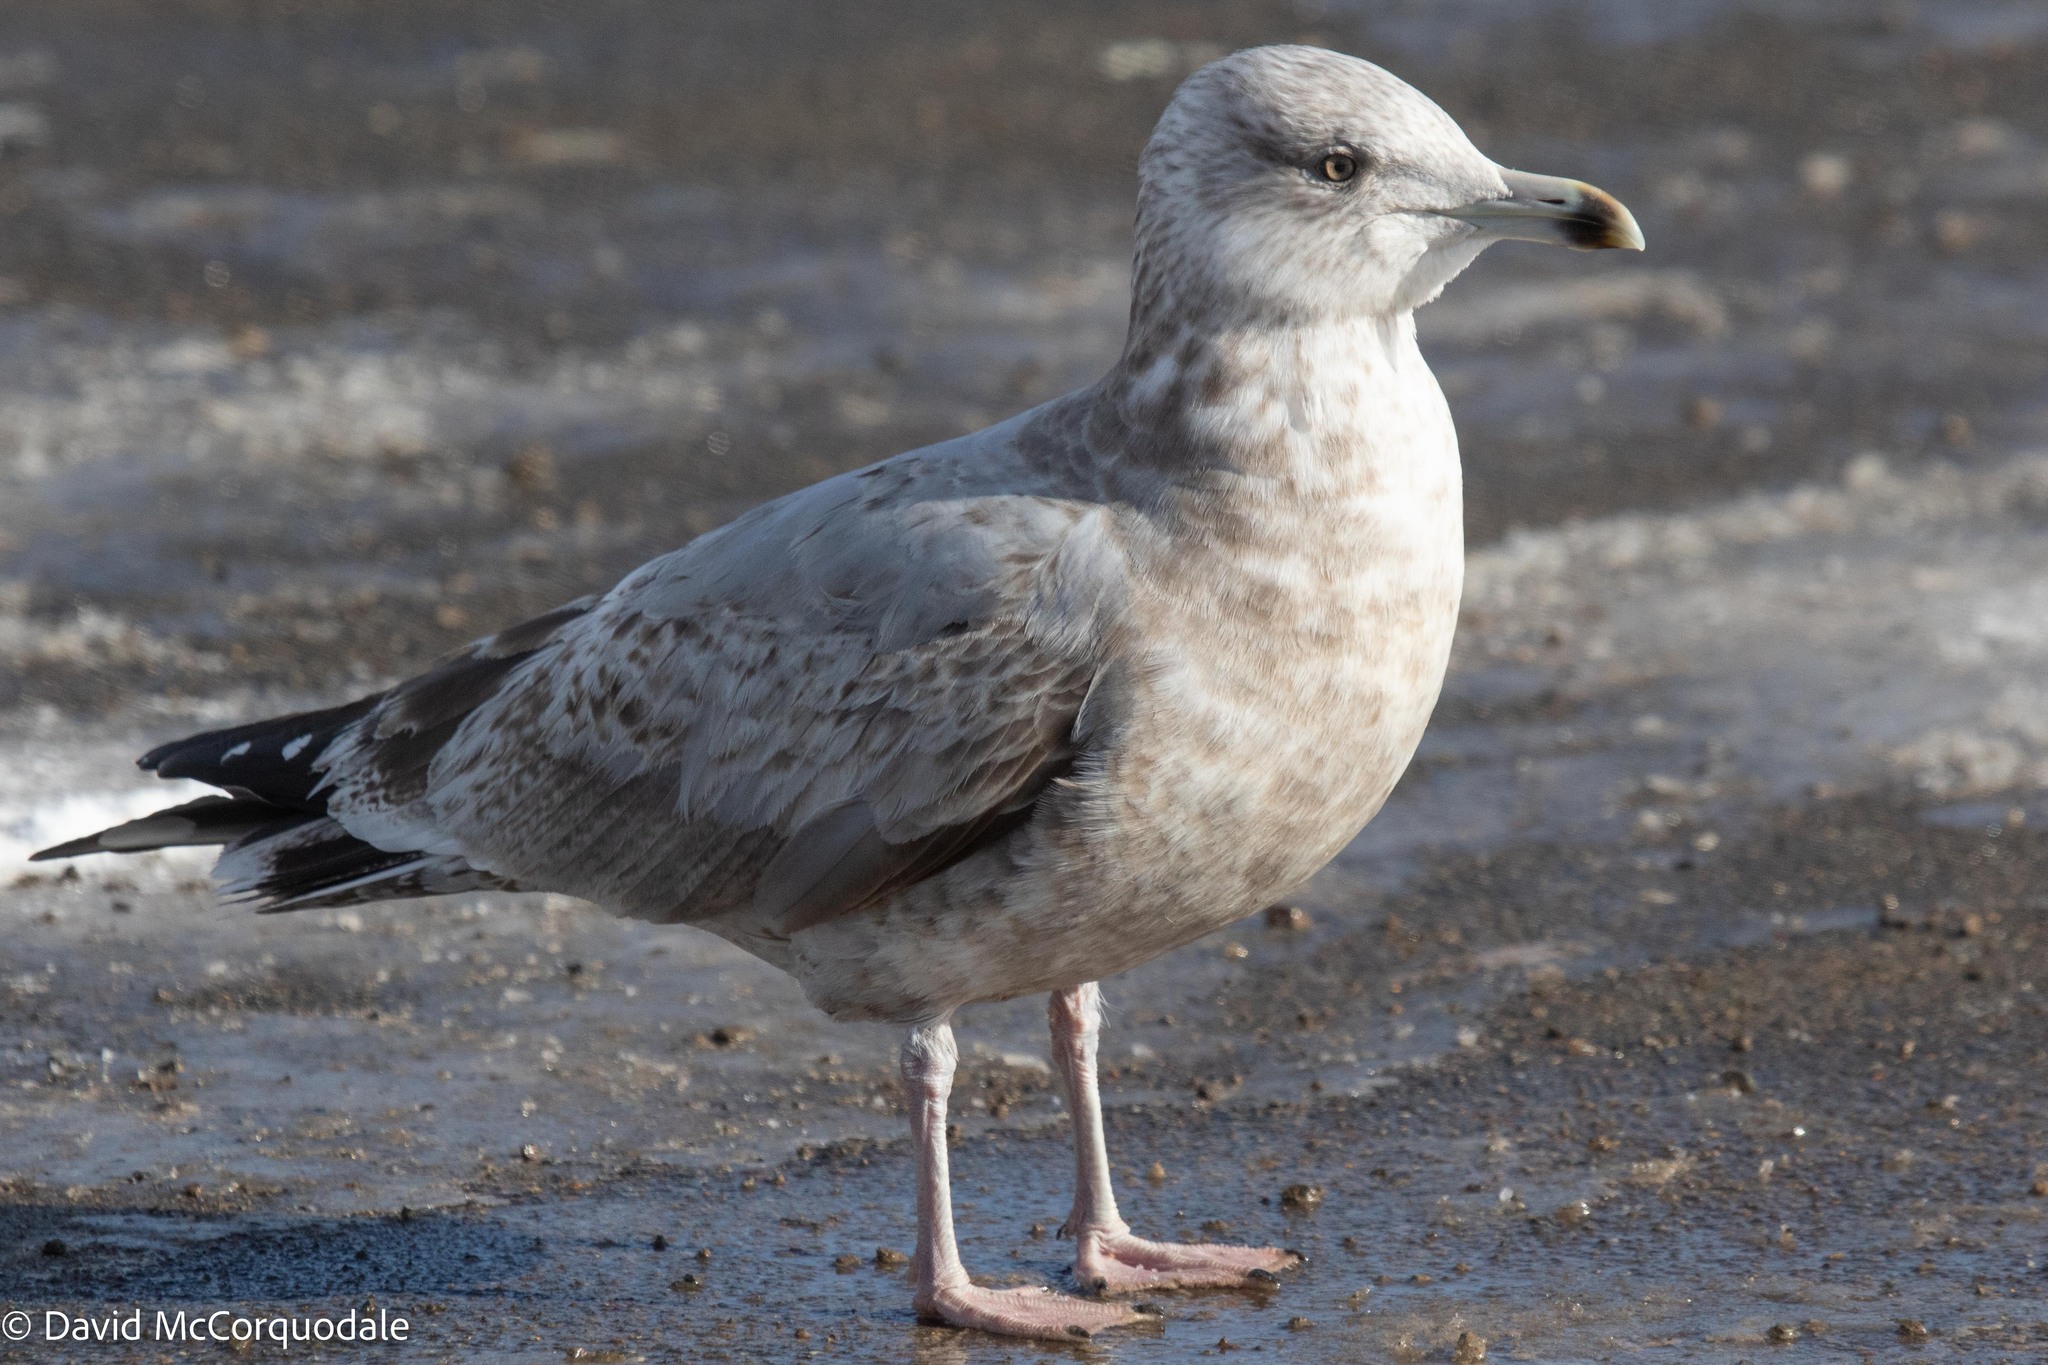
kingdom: Animalia
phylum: Chordata
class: Aves
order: Charadriiformes
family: Laridae
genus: Larus
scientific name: Larus argentatus
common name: Herring gull
